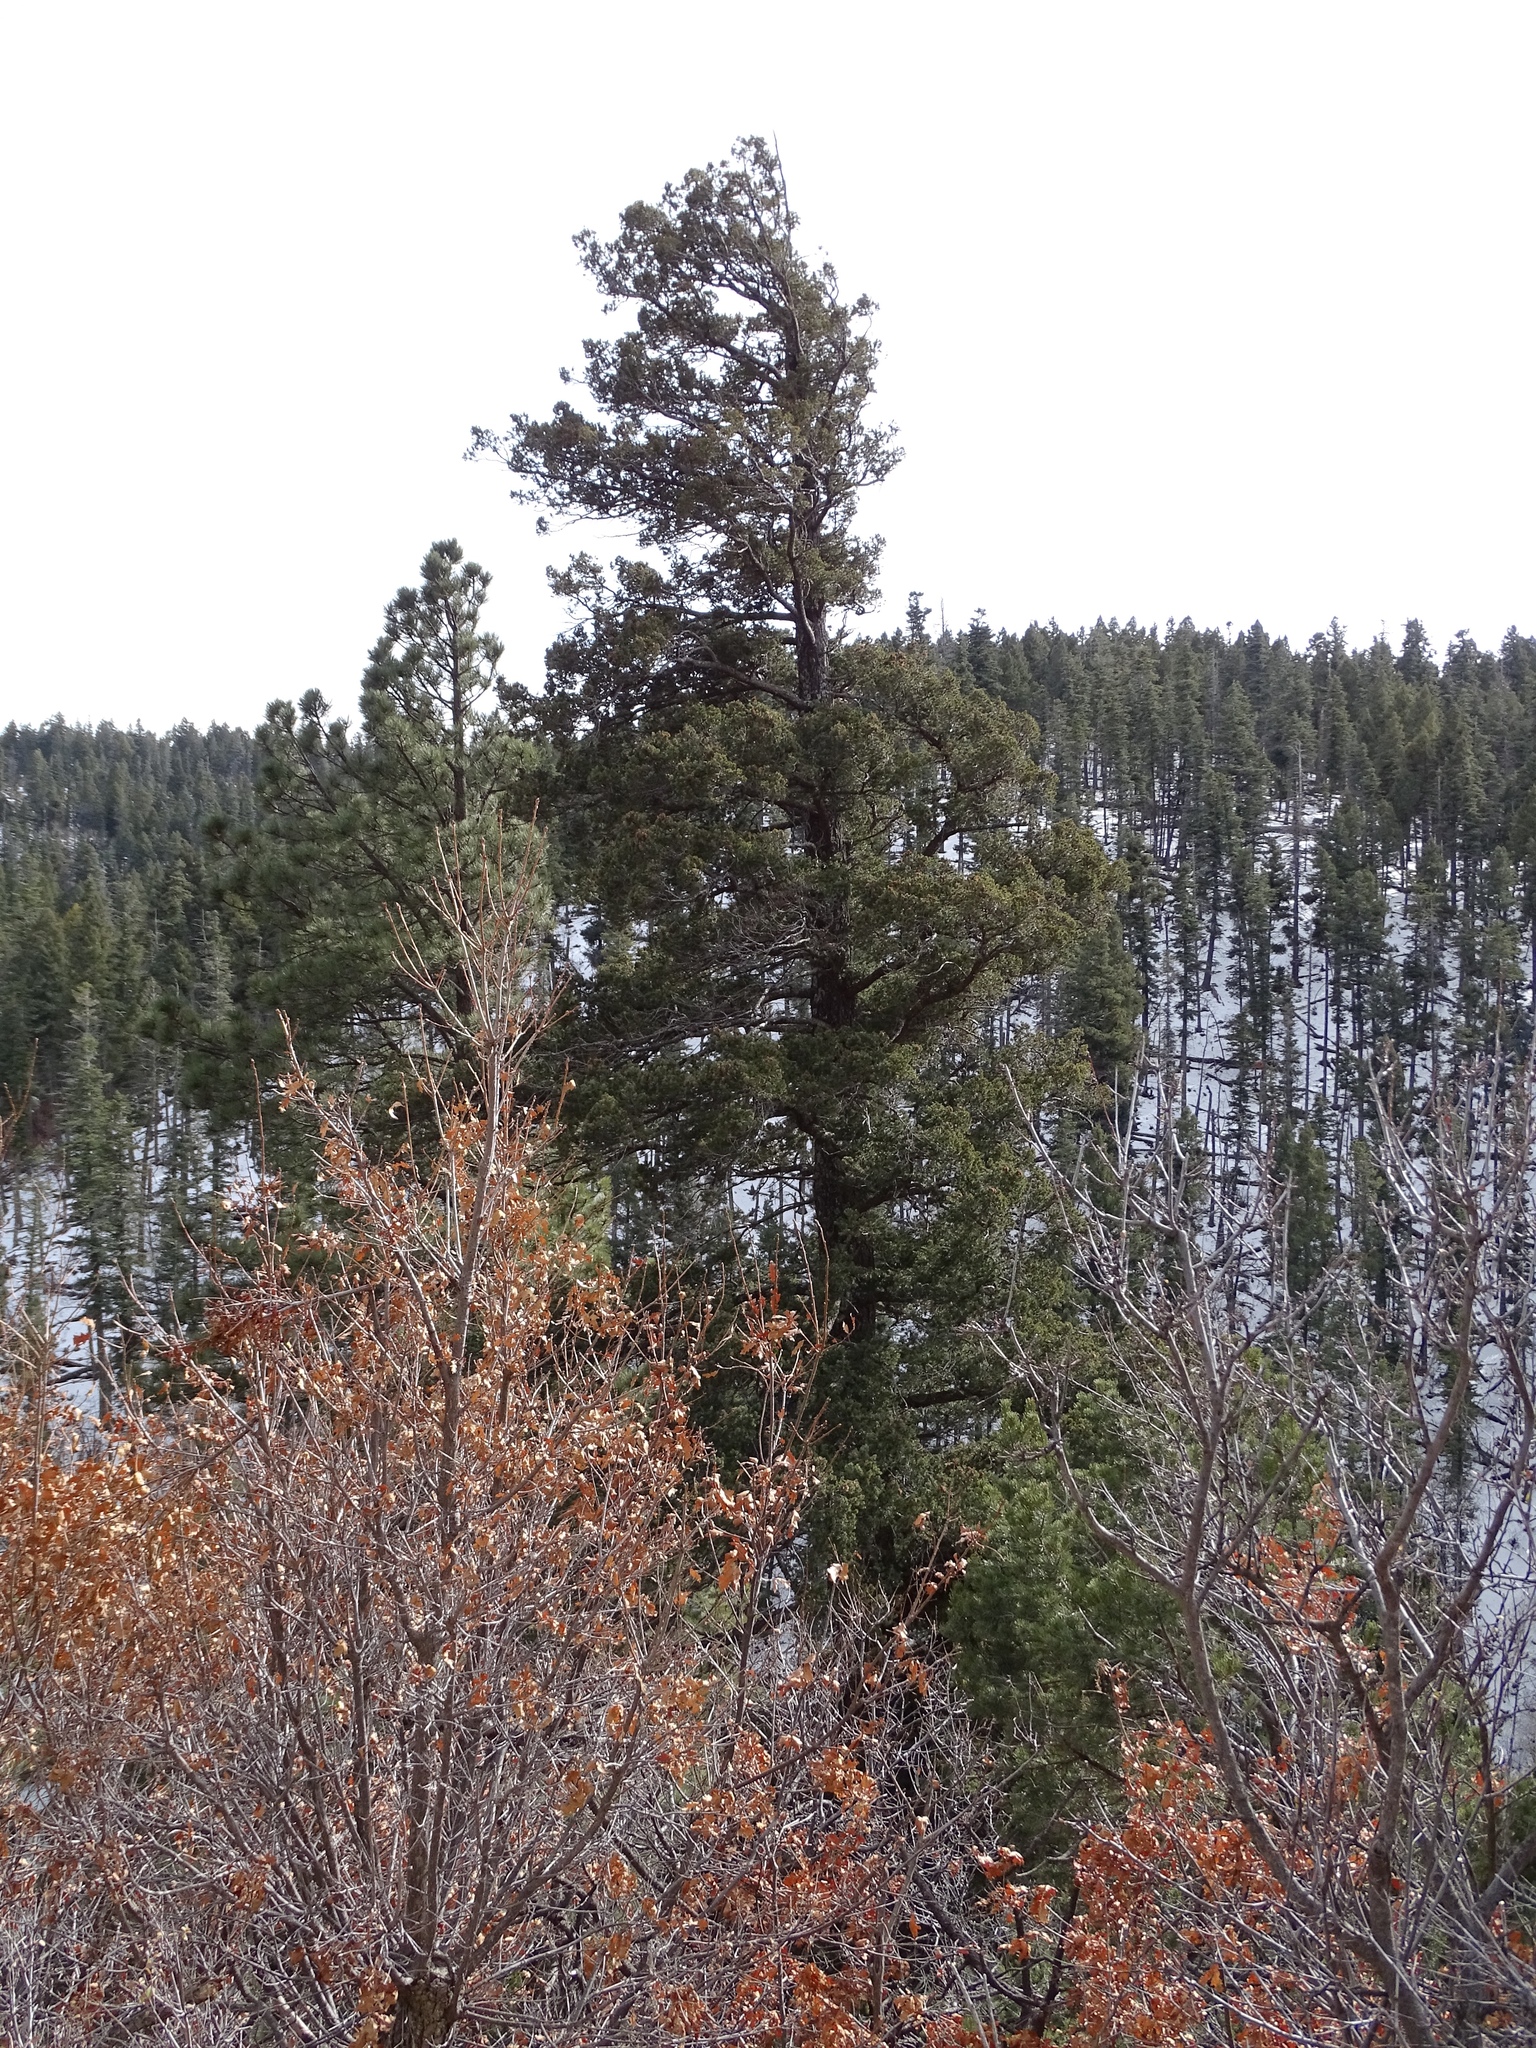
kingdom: Plantae
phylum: Tracheophyta
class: Pinopsida
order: Pinales
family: Pinaceae
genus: Pseudotsuga
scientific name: Pseudotsuga menziesii
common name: Douglas fir
